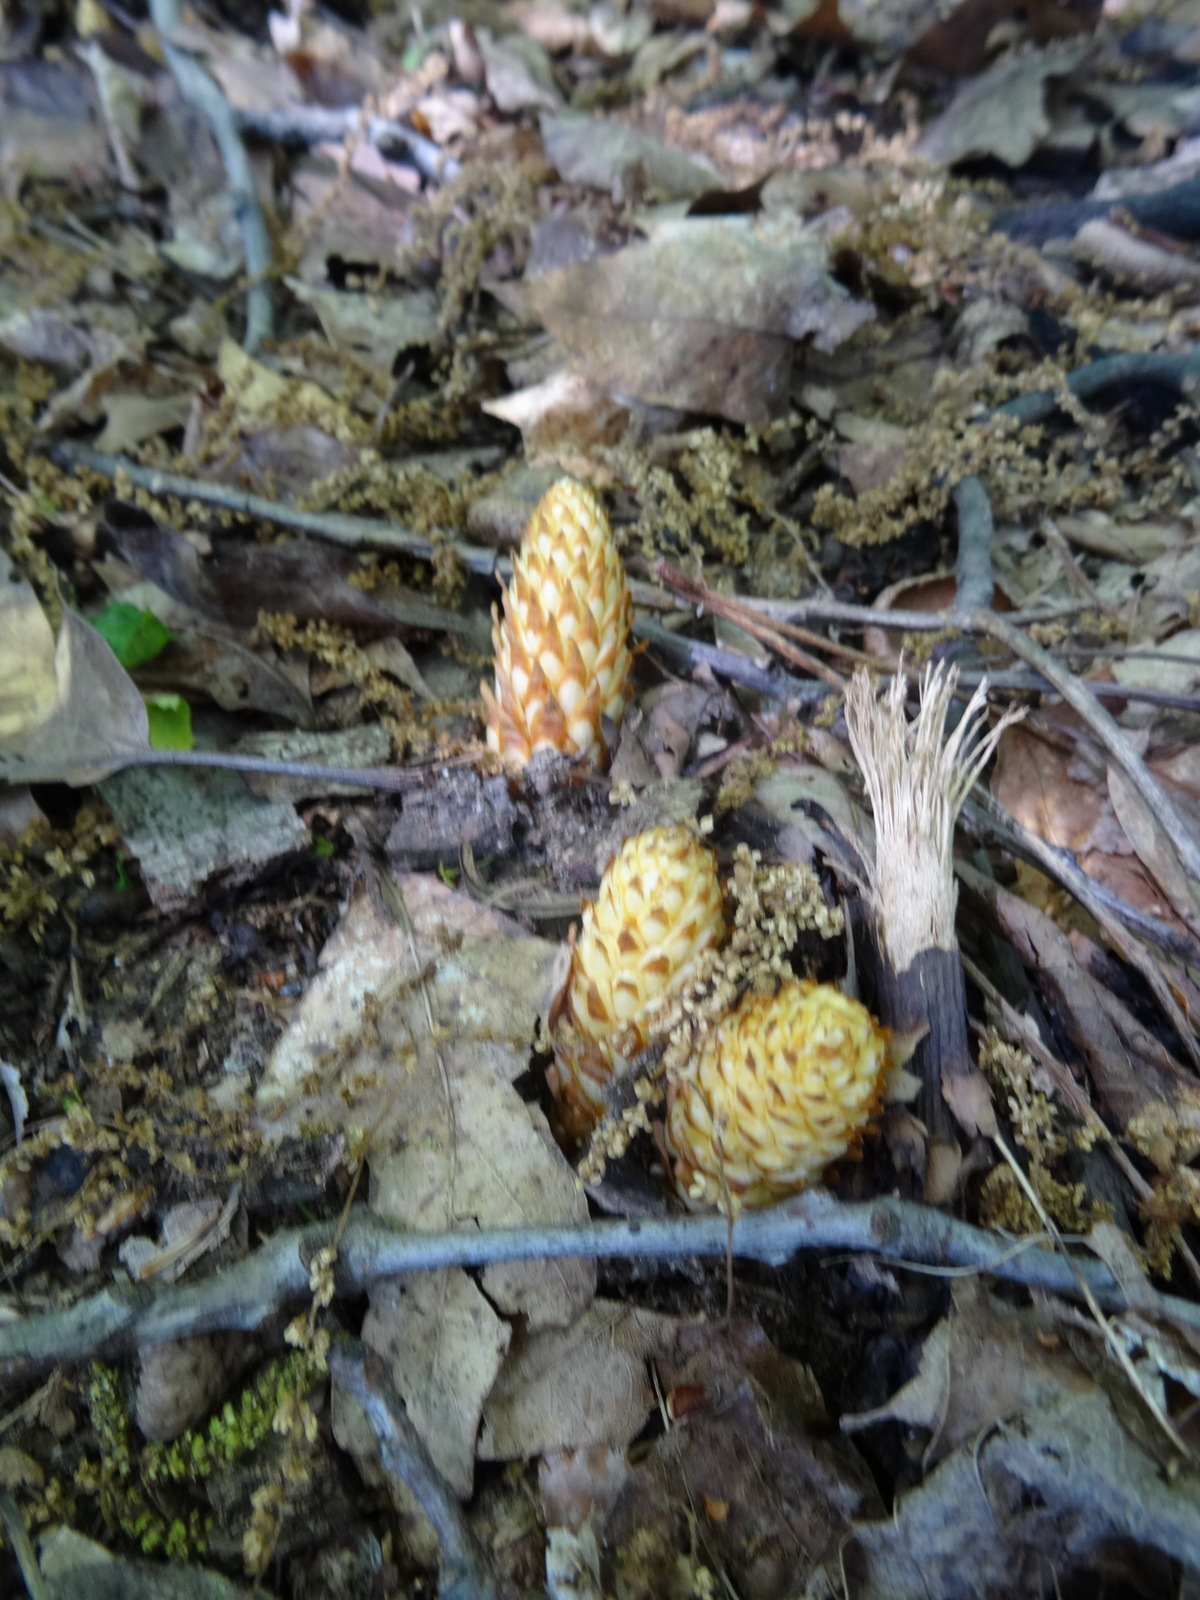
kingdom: Plantae
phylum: Tracheophyta
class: Magnoliopsida
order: Lamiales
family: Orobanchaceae
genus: Conopholis
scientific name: Conopholis americana
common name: American cancer-root
